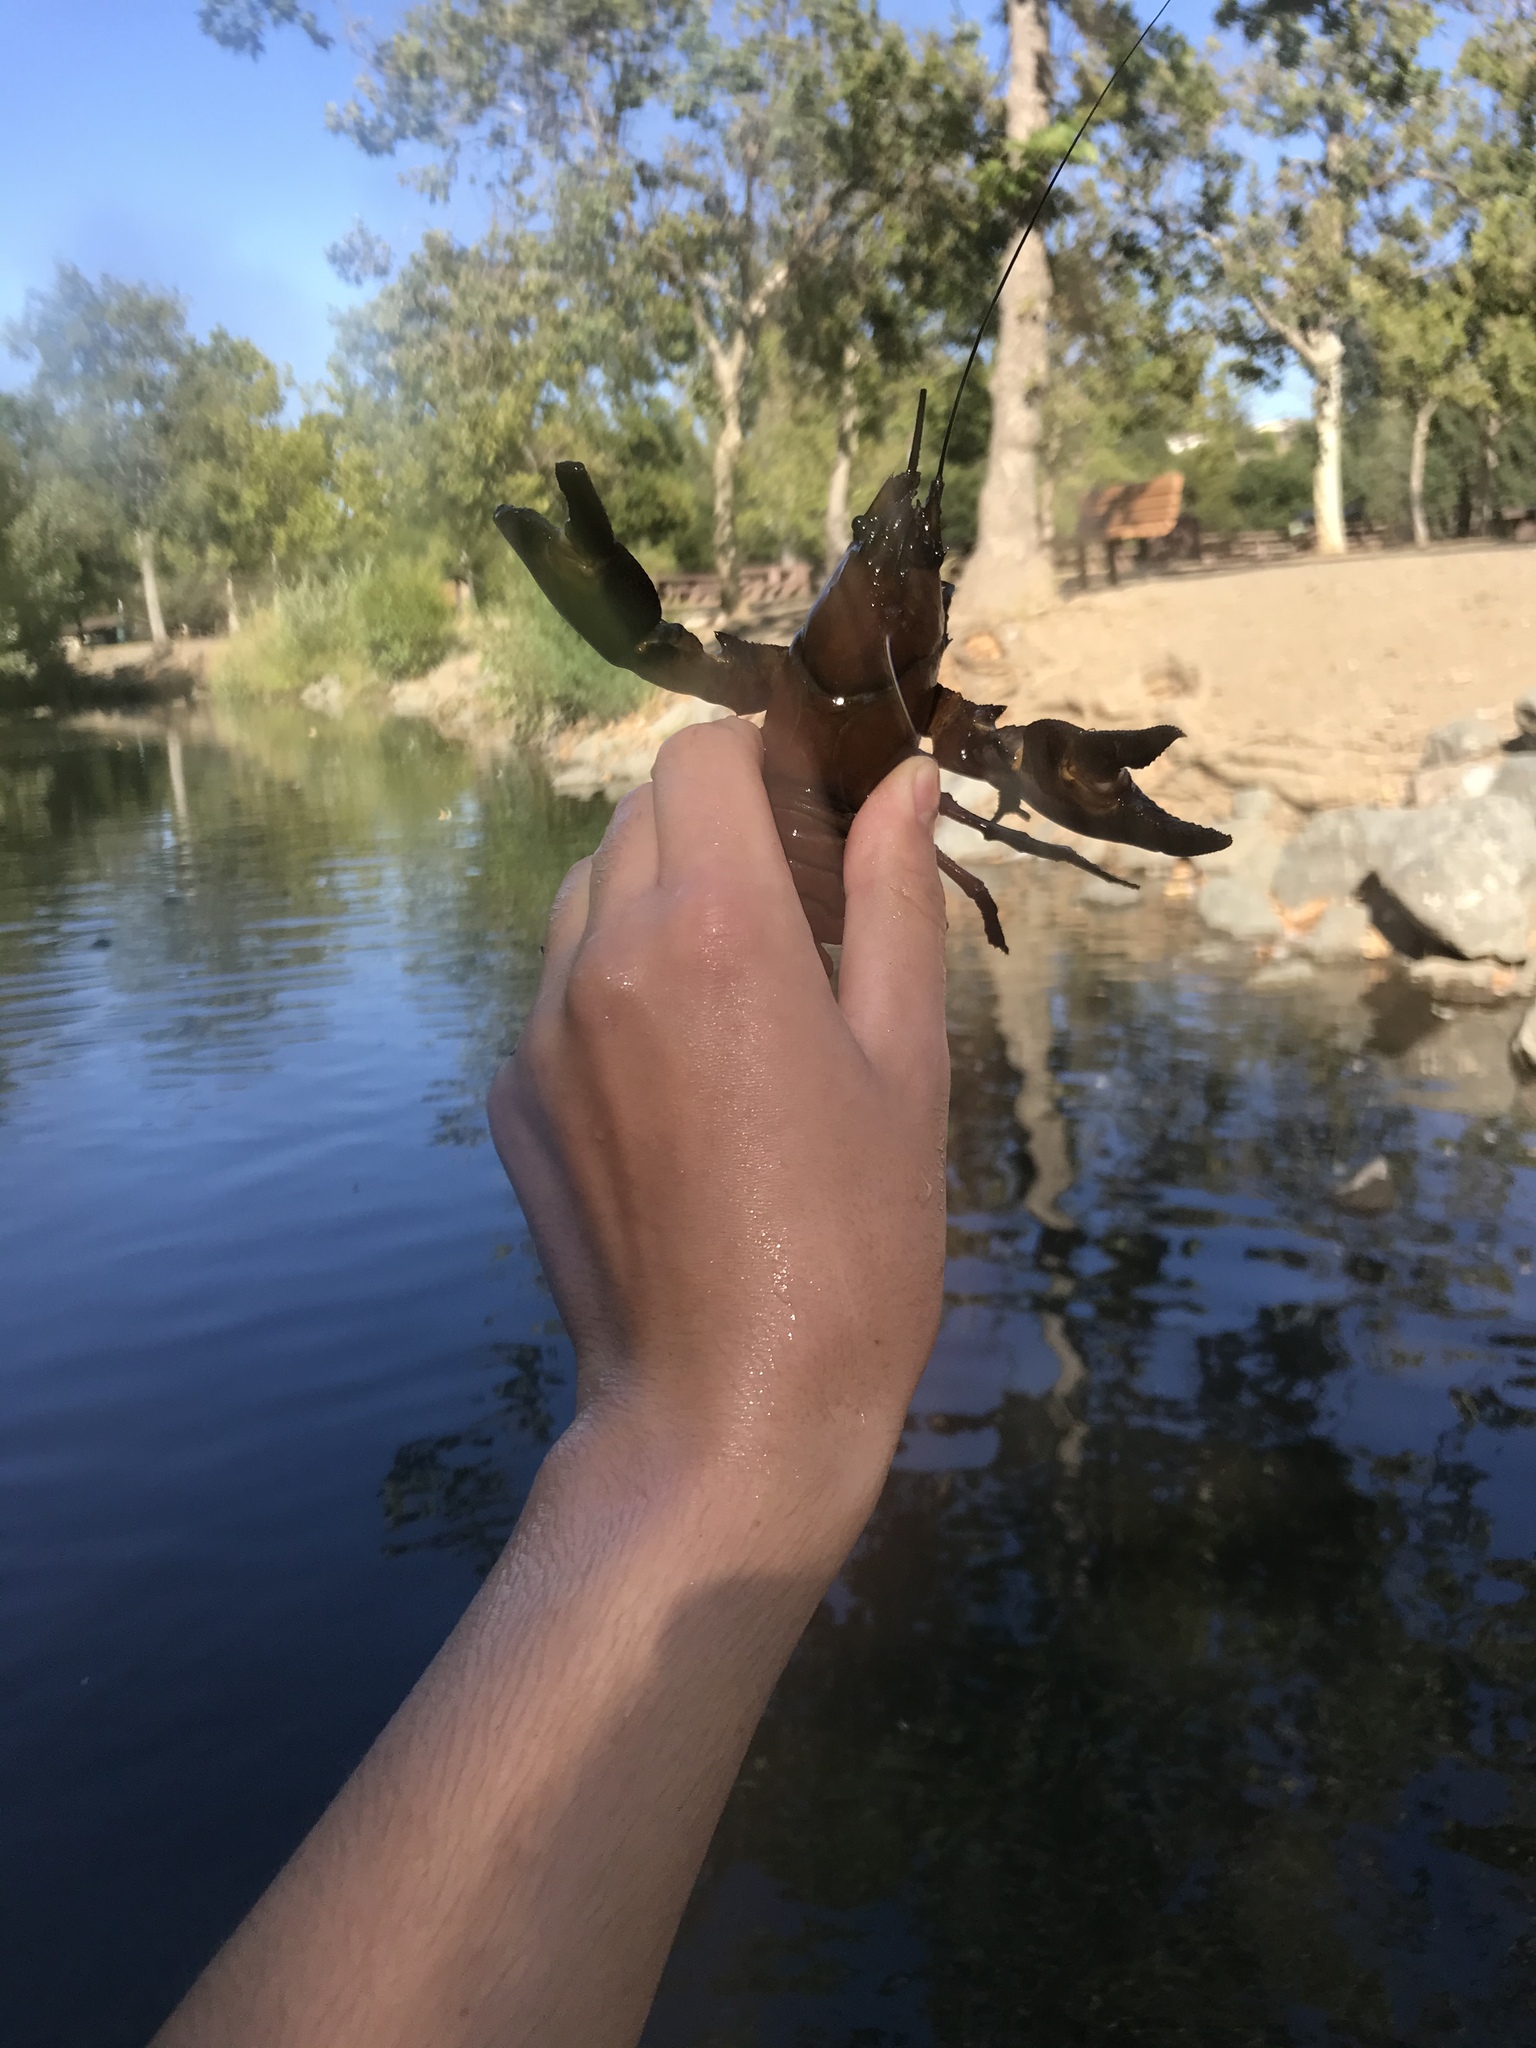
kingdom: Animalia
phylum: Arthropoda
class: Malacostraca
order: Decapoda
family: Astacidae
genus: Pacifastacus
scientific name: Pacifastacus leniusculus
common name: Signal crayfish
